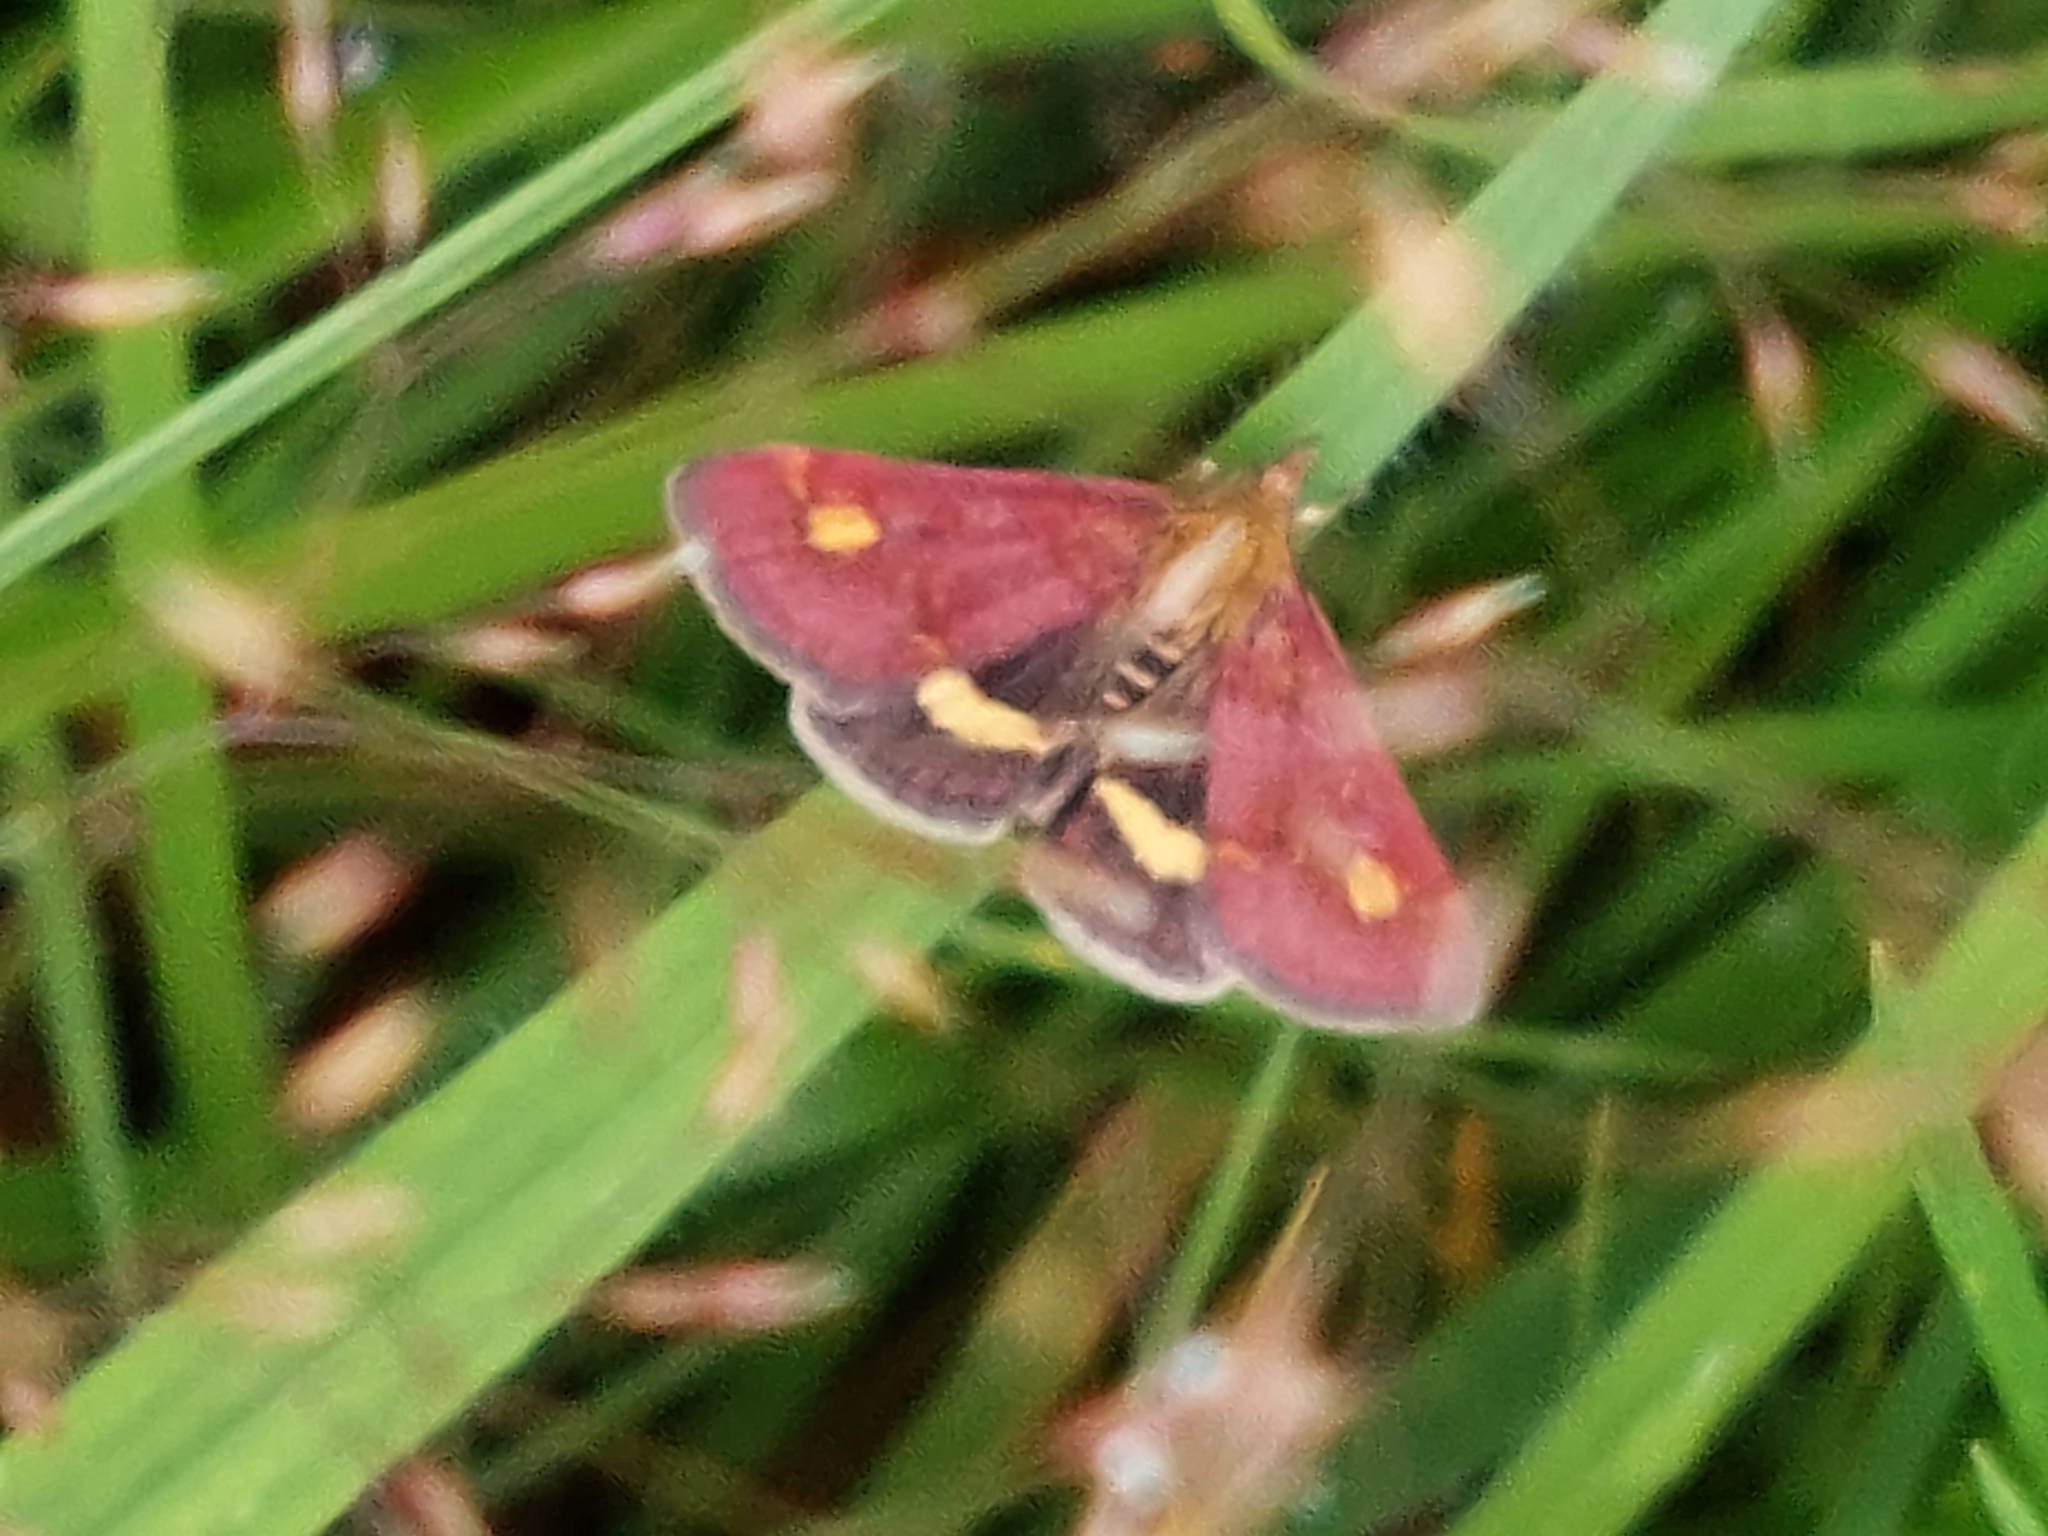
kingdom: Animalia
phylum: Arthropoda
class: Insecta
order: Lepidoptera
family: Crambidae
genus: Pyrausta
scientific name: Pyrausta aurata
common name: Small purple & gold
